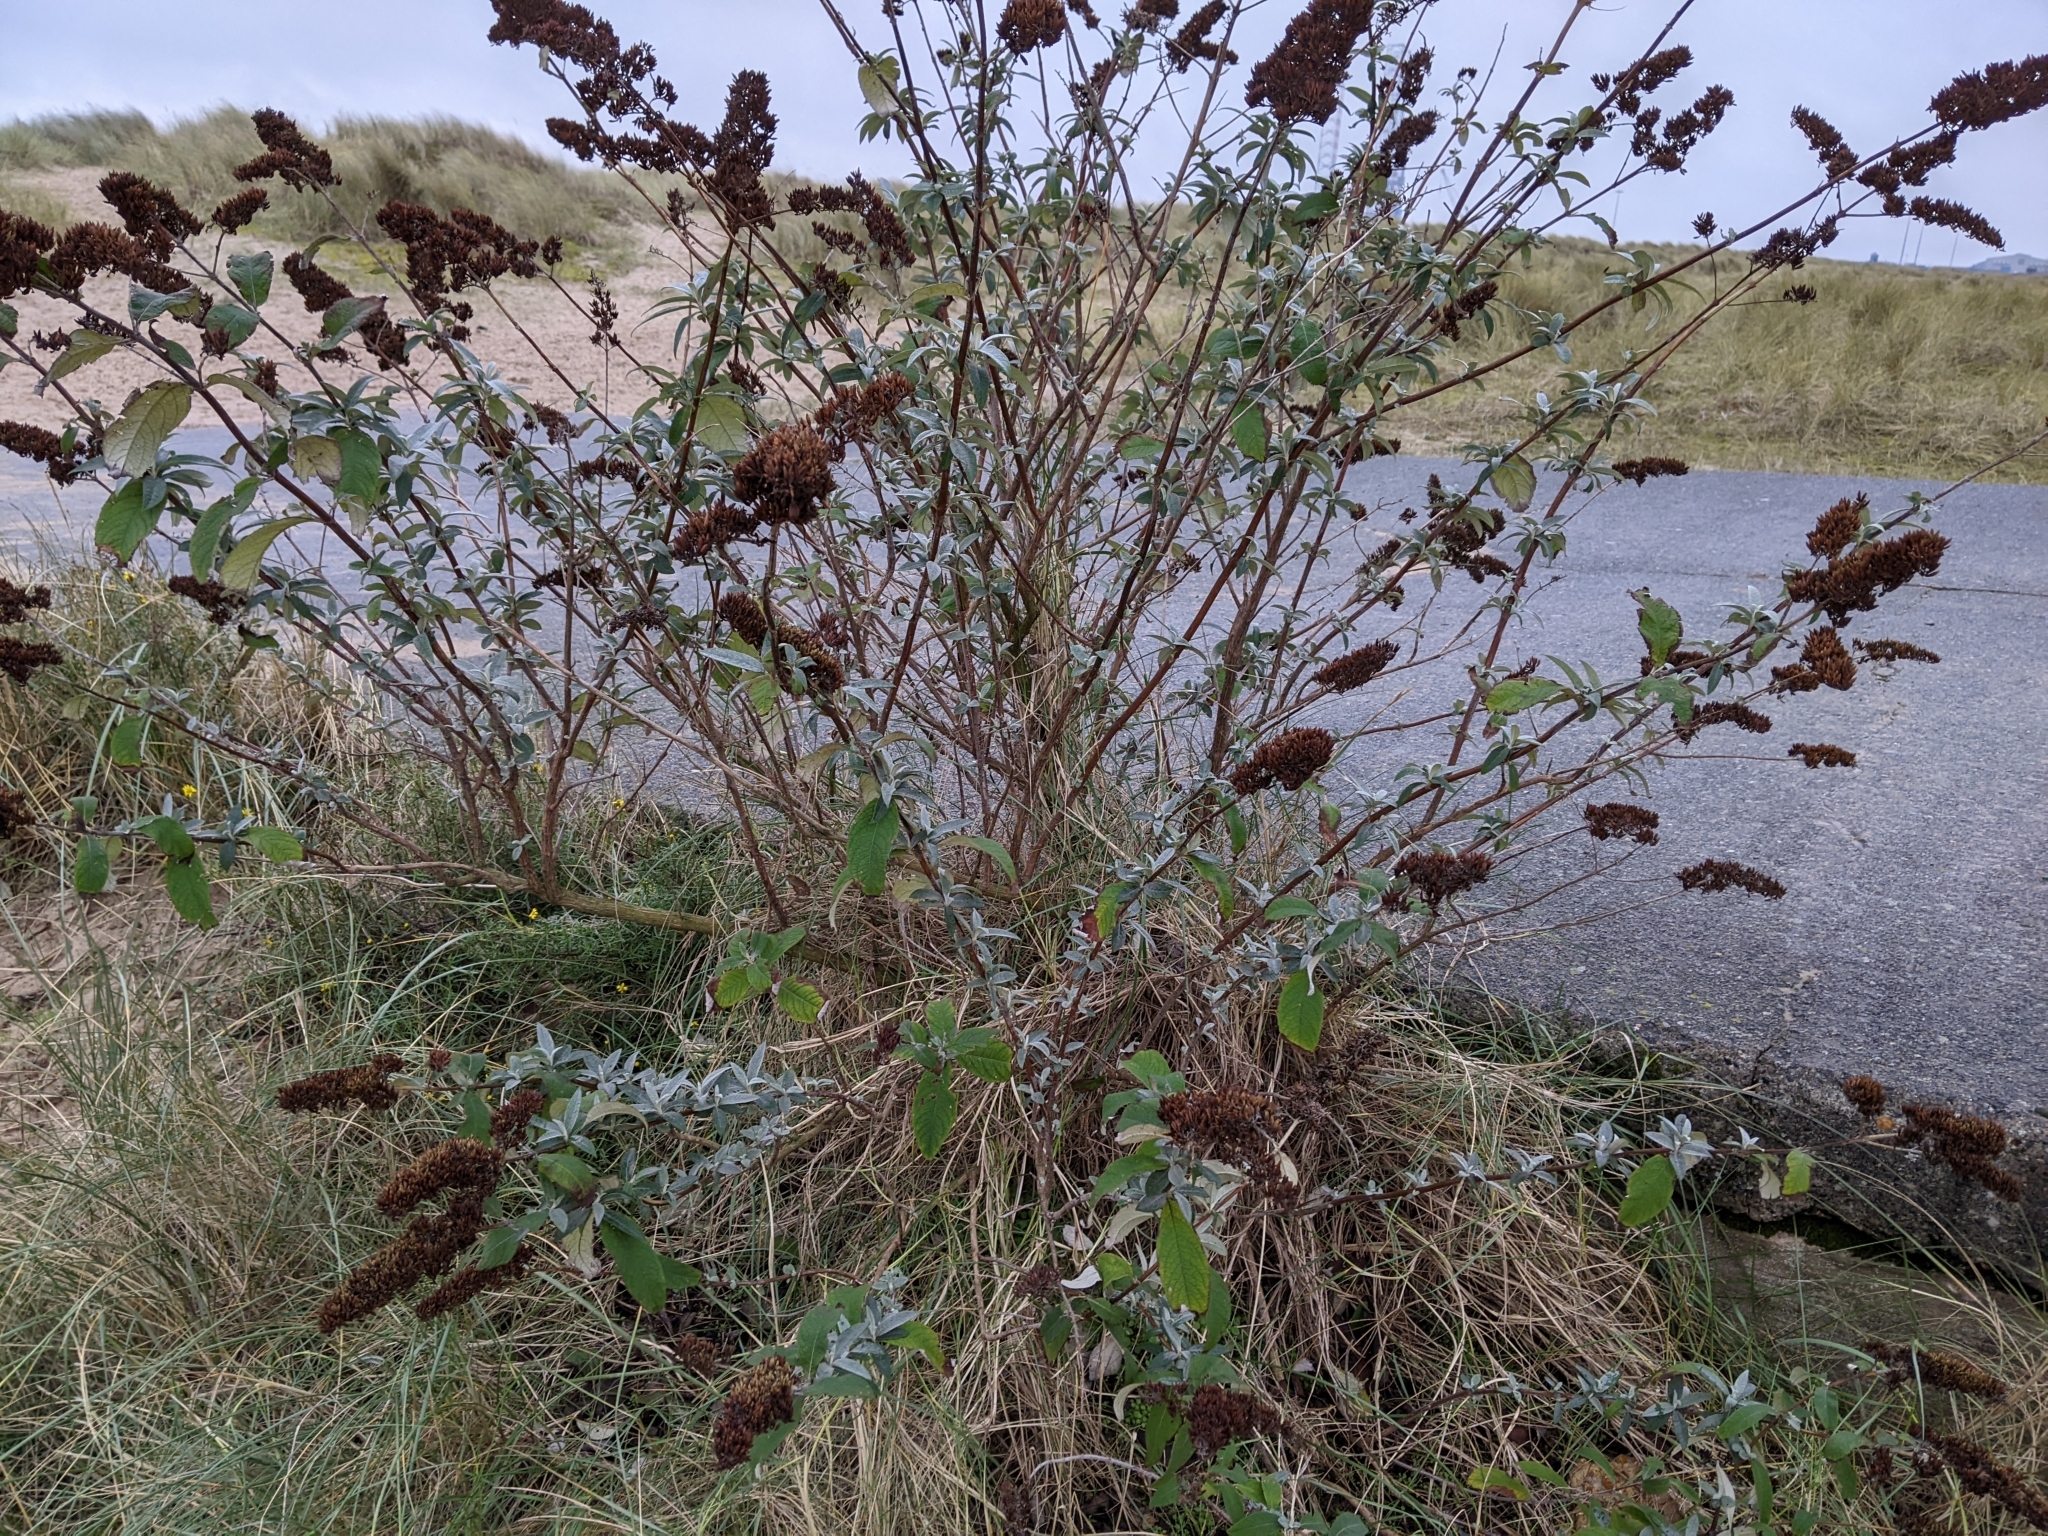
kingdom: Plantae
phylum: Tracheophyta
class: Magnoliopsida
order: Lamiales
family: Scrophulariaceae
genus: Buddleja
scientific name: Buddleja davidii
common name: Butterfly-bush
